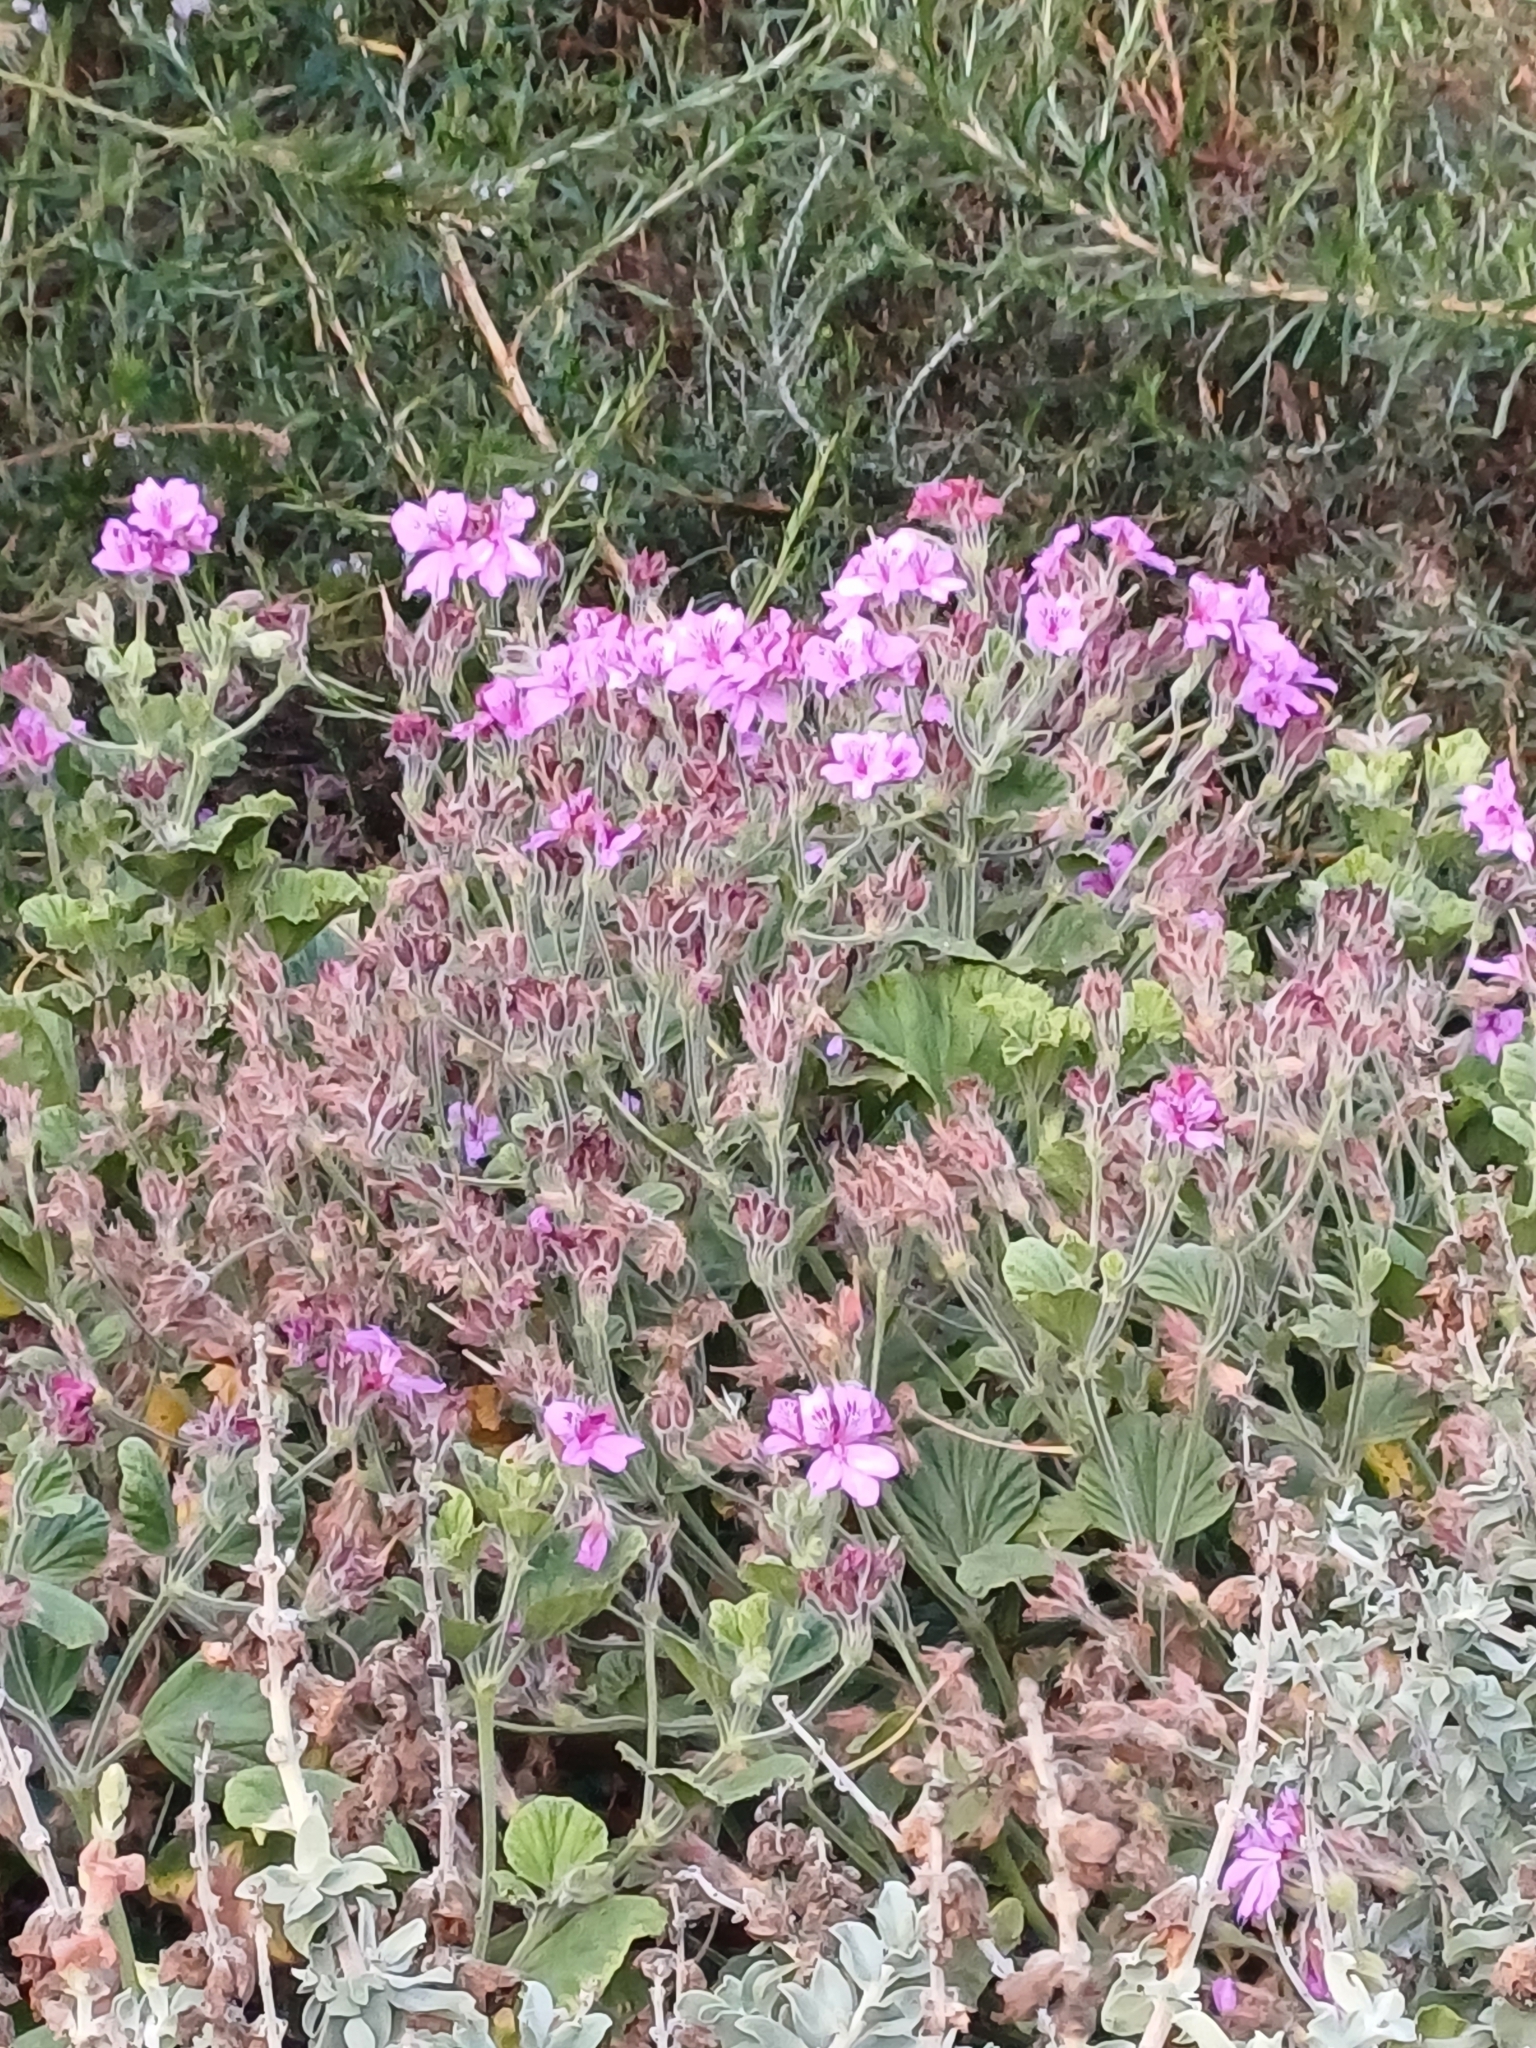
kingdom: Plantae
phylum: Tracheophyta
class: Magnoliopsida
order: Geraniales
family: Geraniaceae
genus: Pelargonium
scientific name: Pelargonium cucullatum
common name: Tree pelargonium
